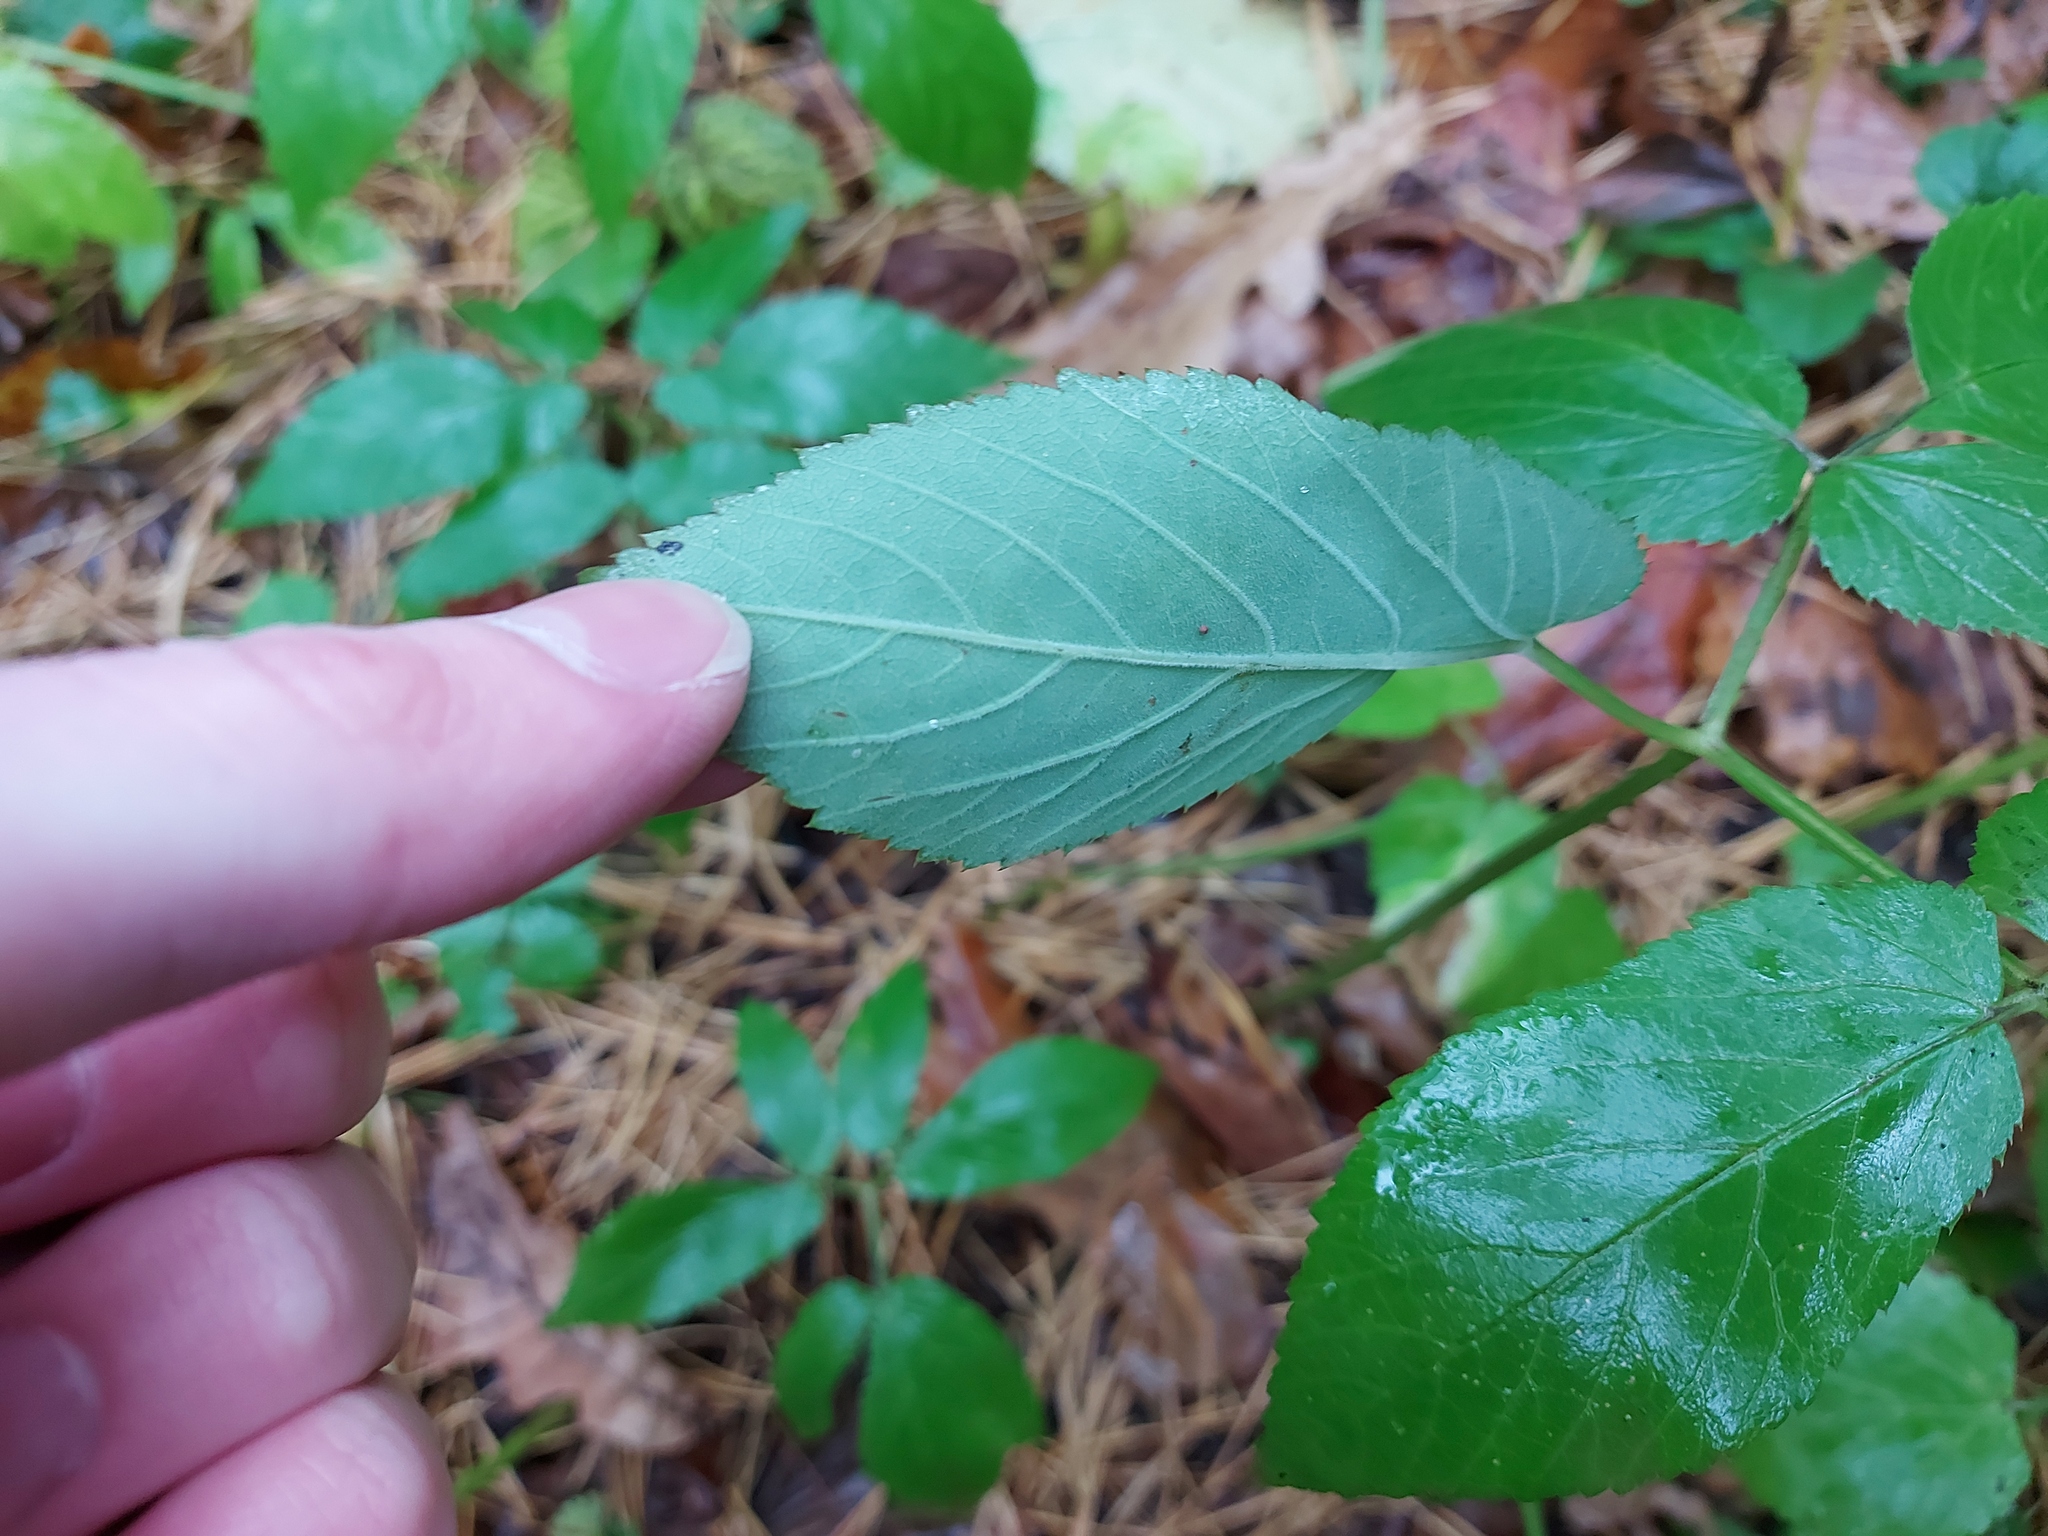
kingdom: Plantae
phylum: Tracheophyta
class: Magnoliopsida
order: Apiales
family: Apiaceae
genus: Aegopodium
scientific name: Aegopodium podagraria
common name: Ground-elder
